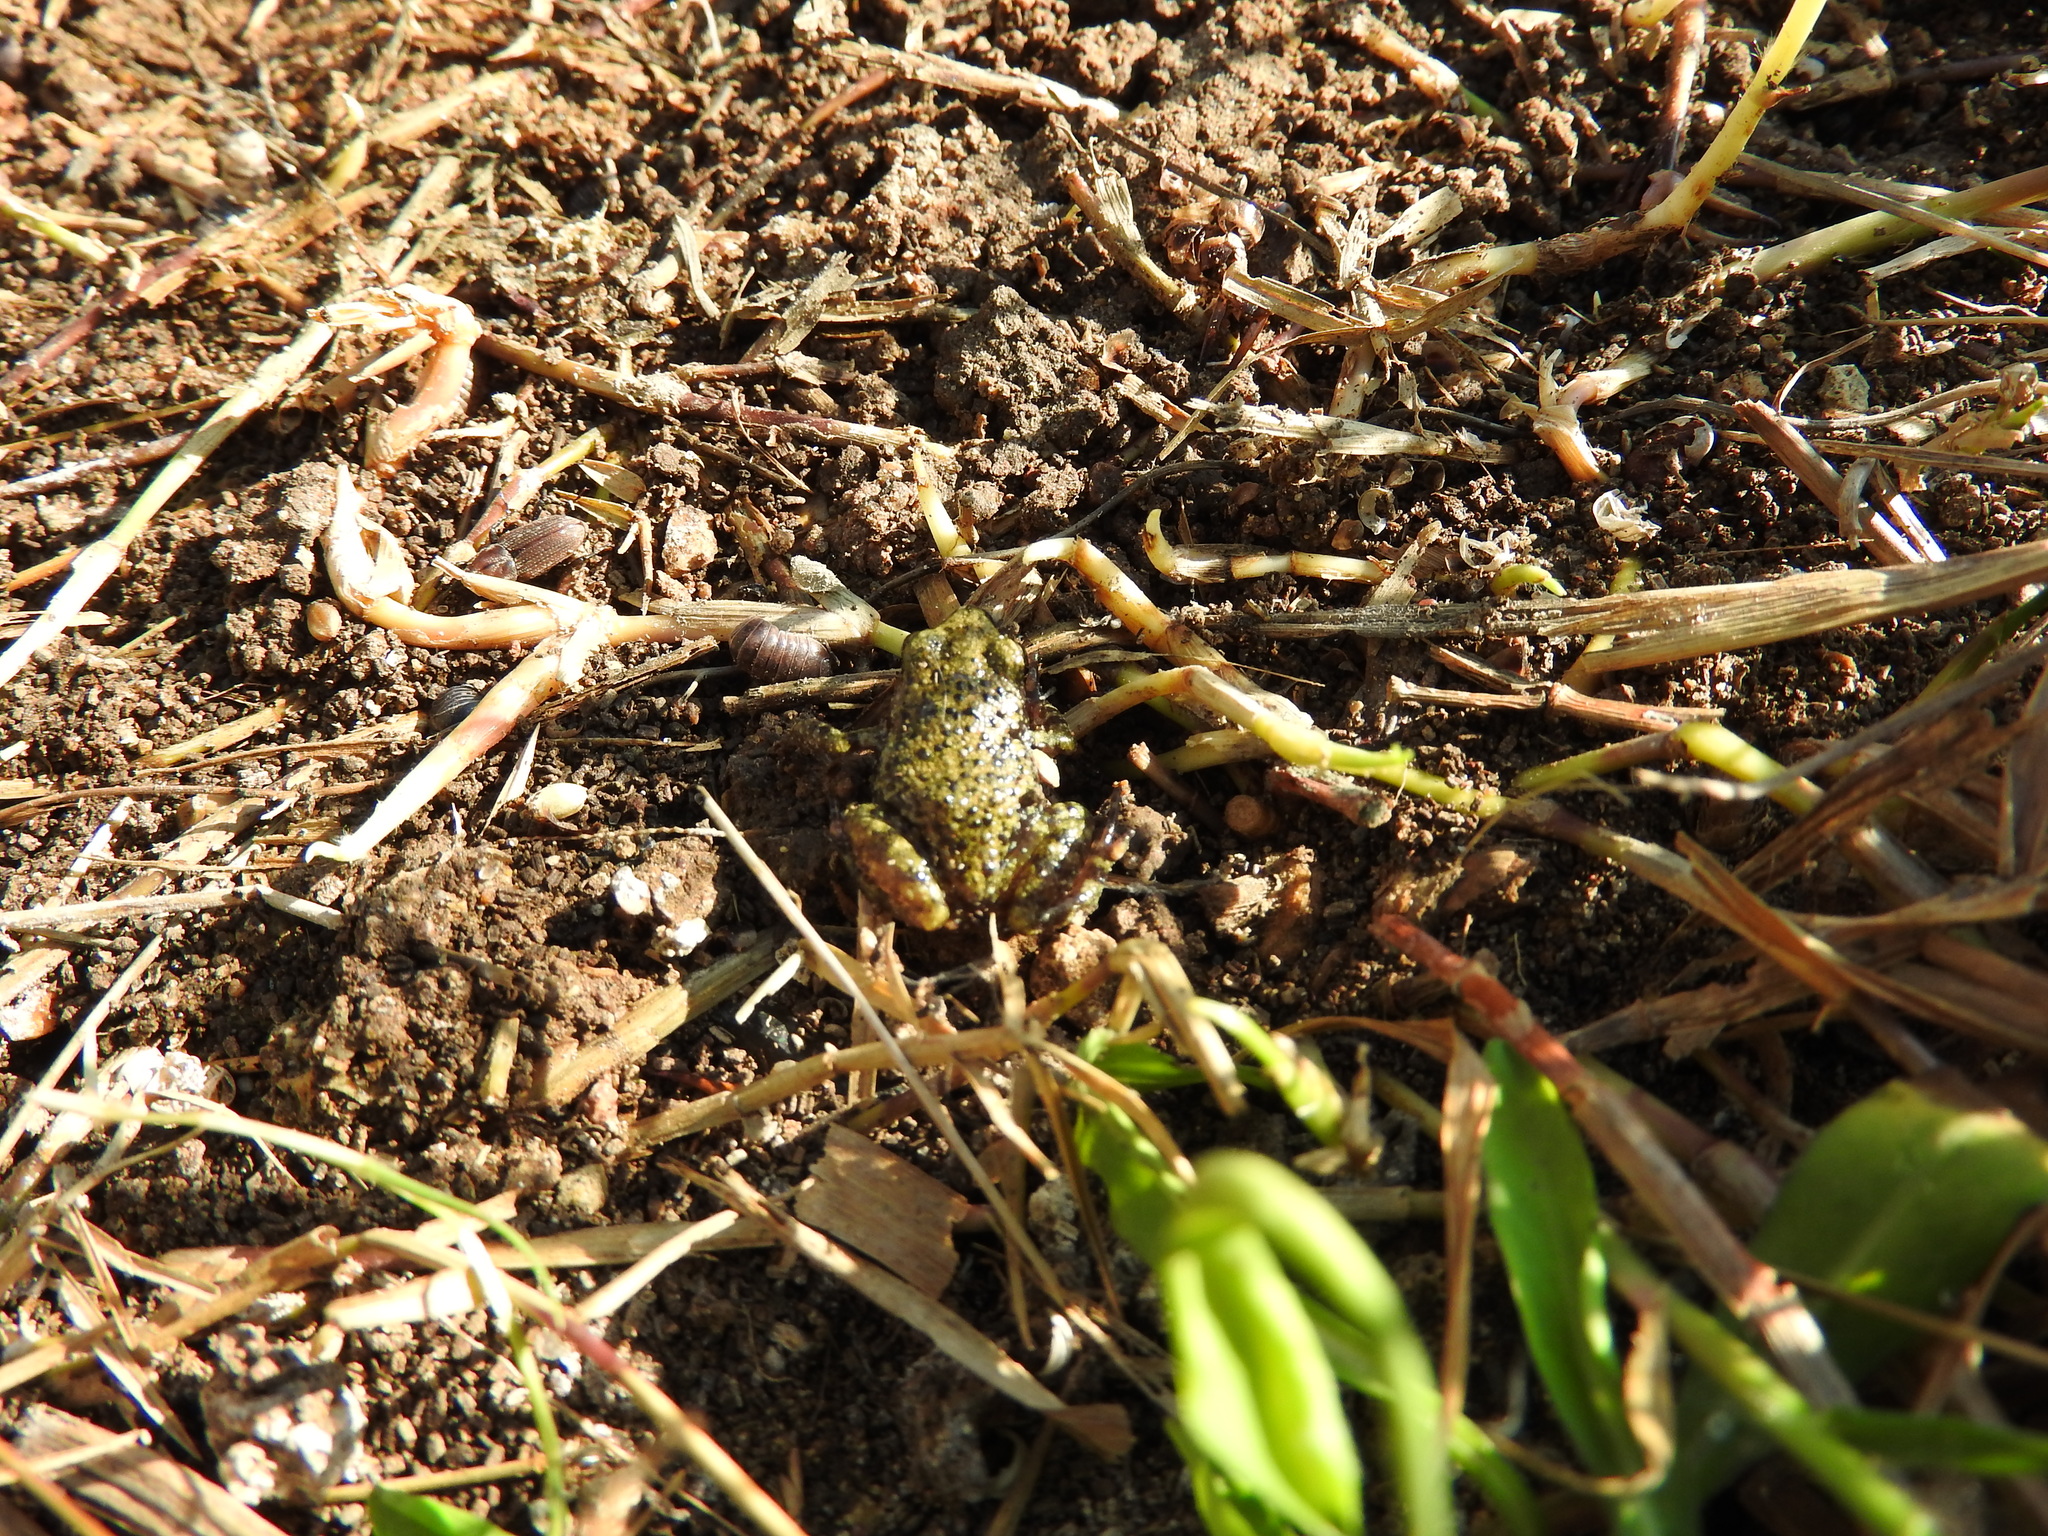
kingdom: Animalia
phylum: Chordata
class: Amphibia
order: Anura
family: Eleutherodactylidae
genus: Eleutherodactylus
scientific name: Eleutherodactylus verrucipes
